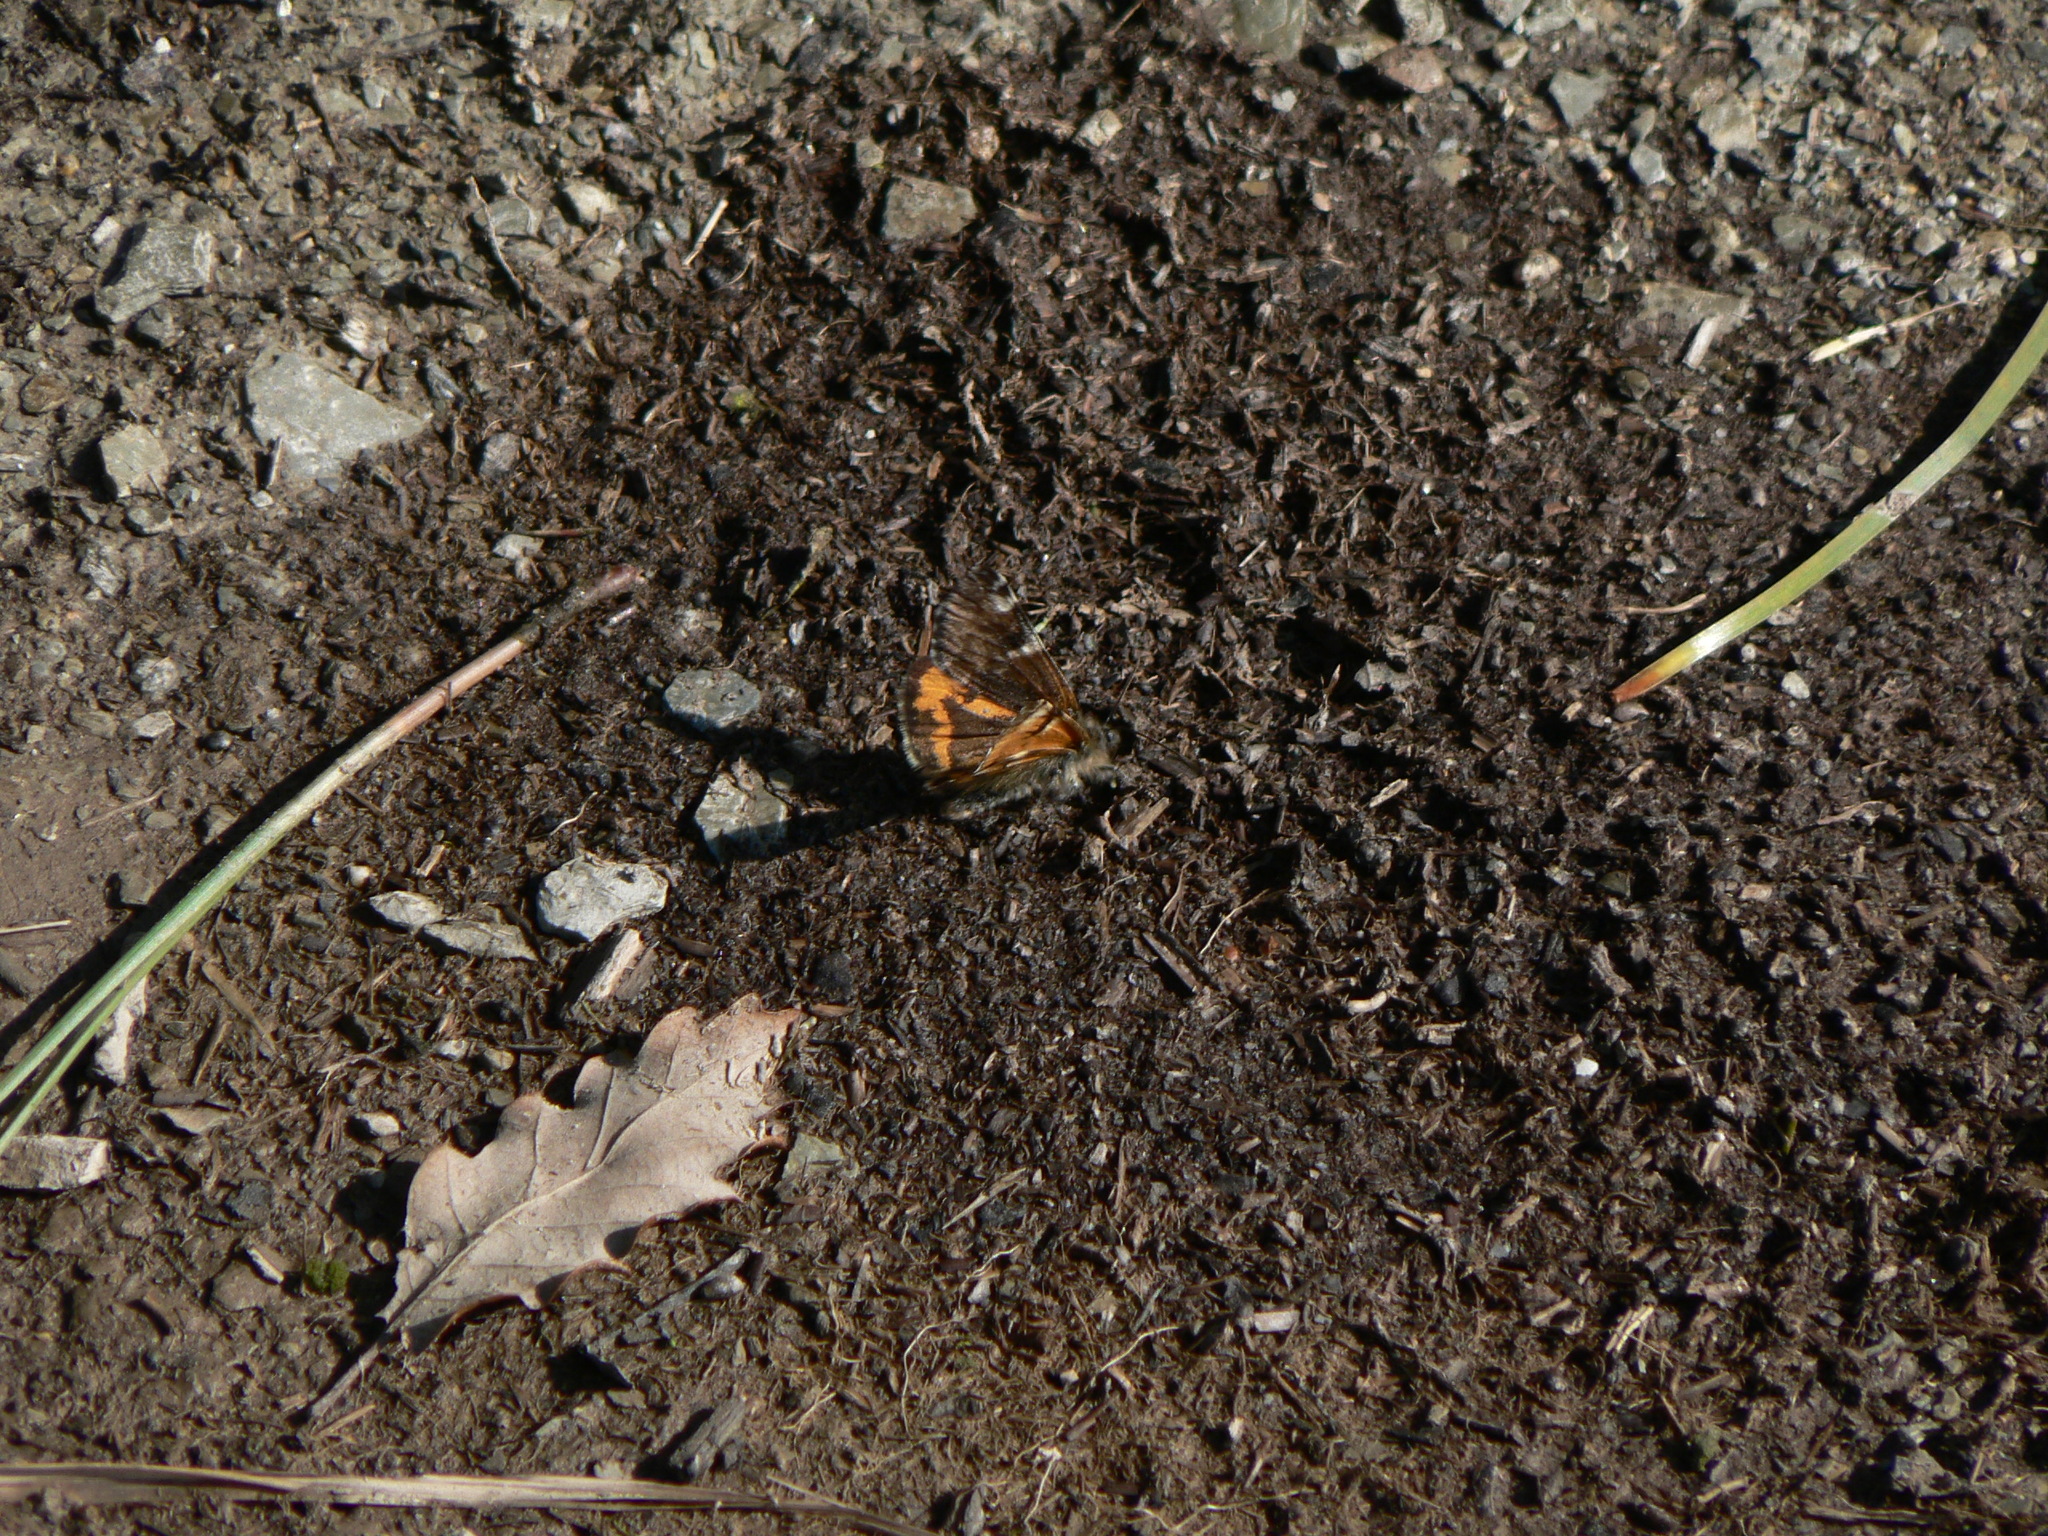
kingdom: Animalia
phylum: Arthropoda
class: Insecta
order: Lepidoptera
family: Geometridae
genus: Archiearis
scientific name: Archiearis parthenias
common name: Orange underwing
